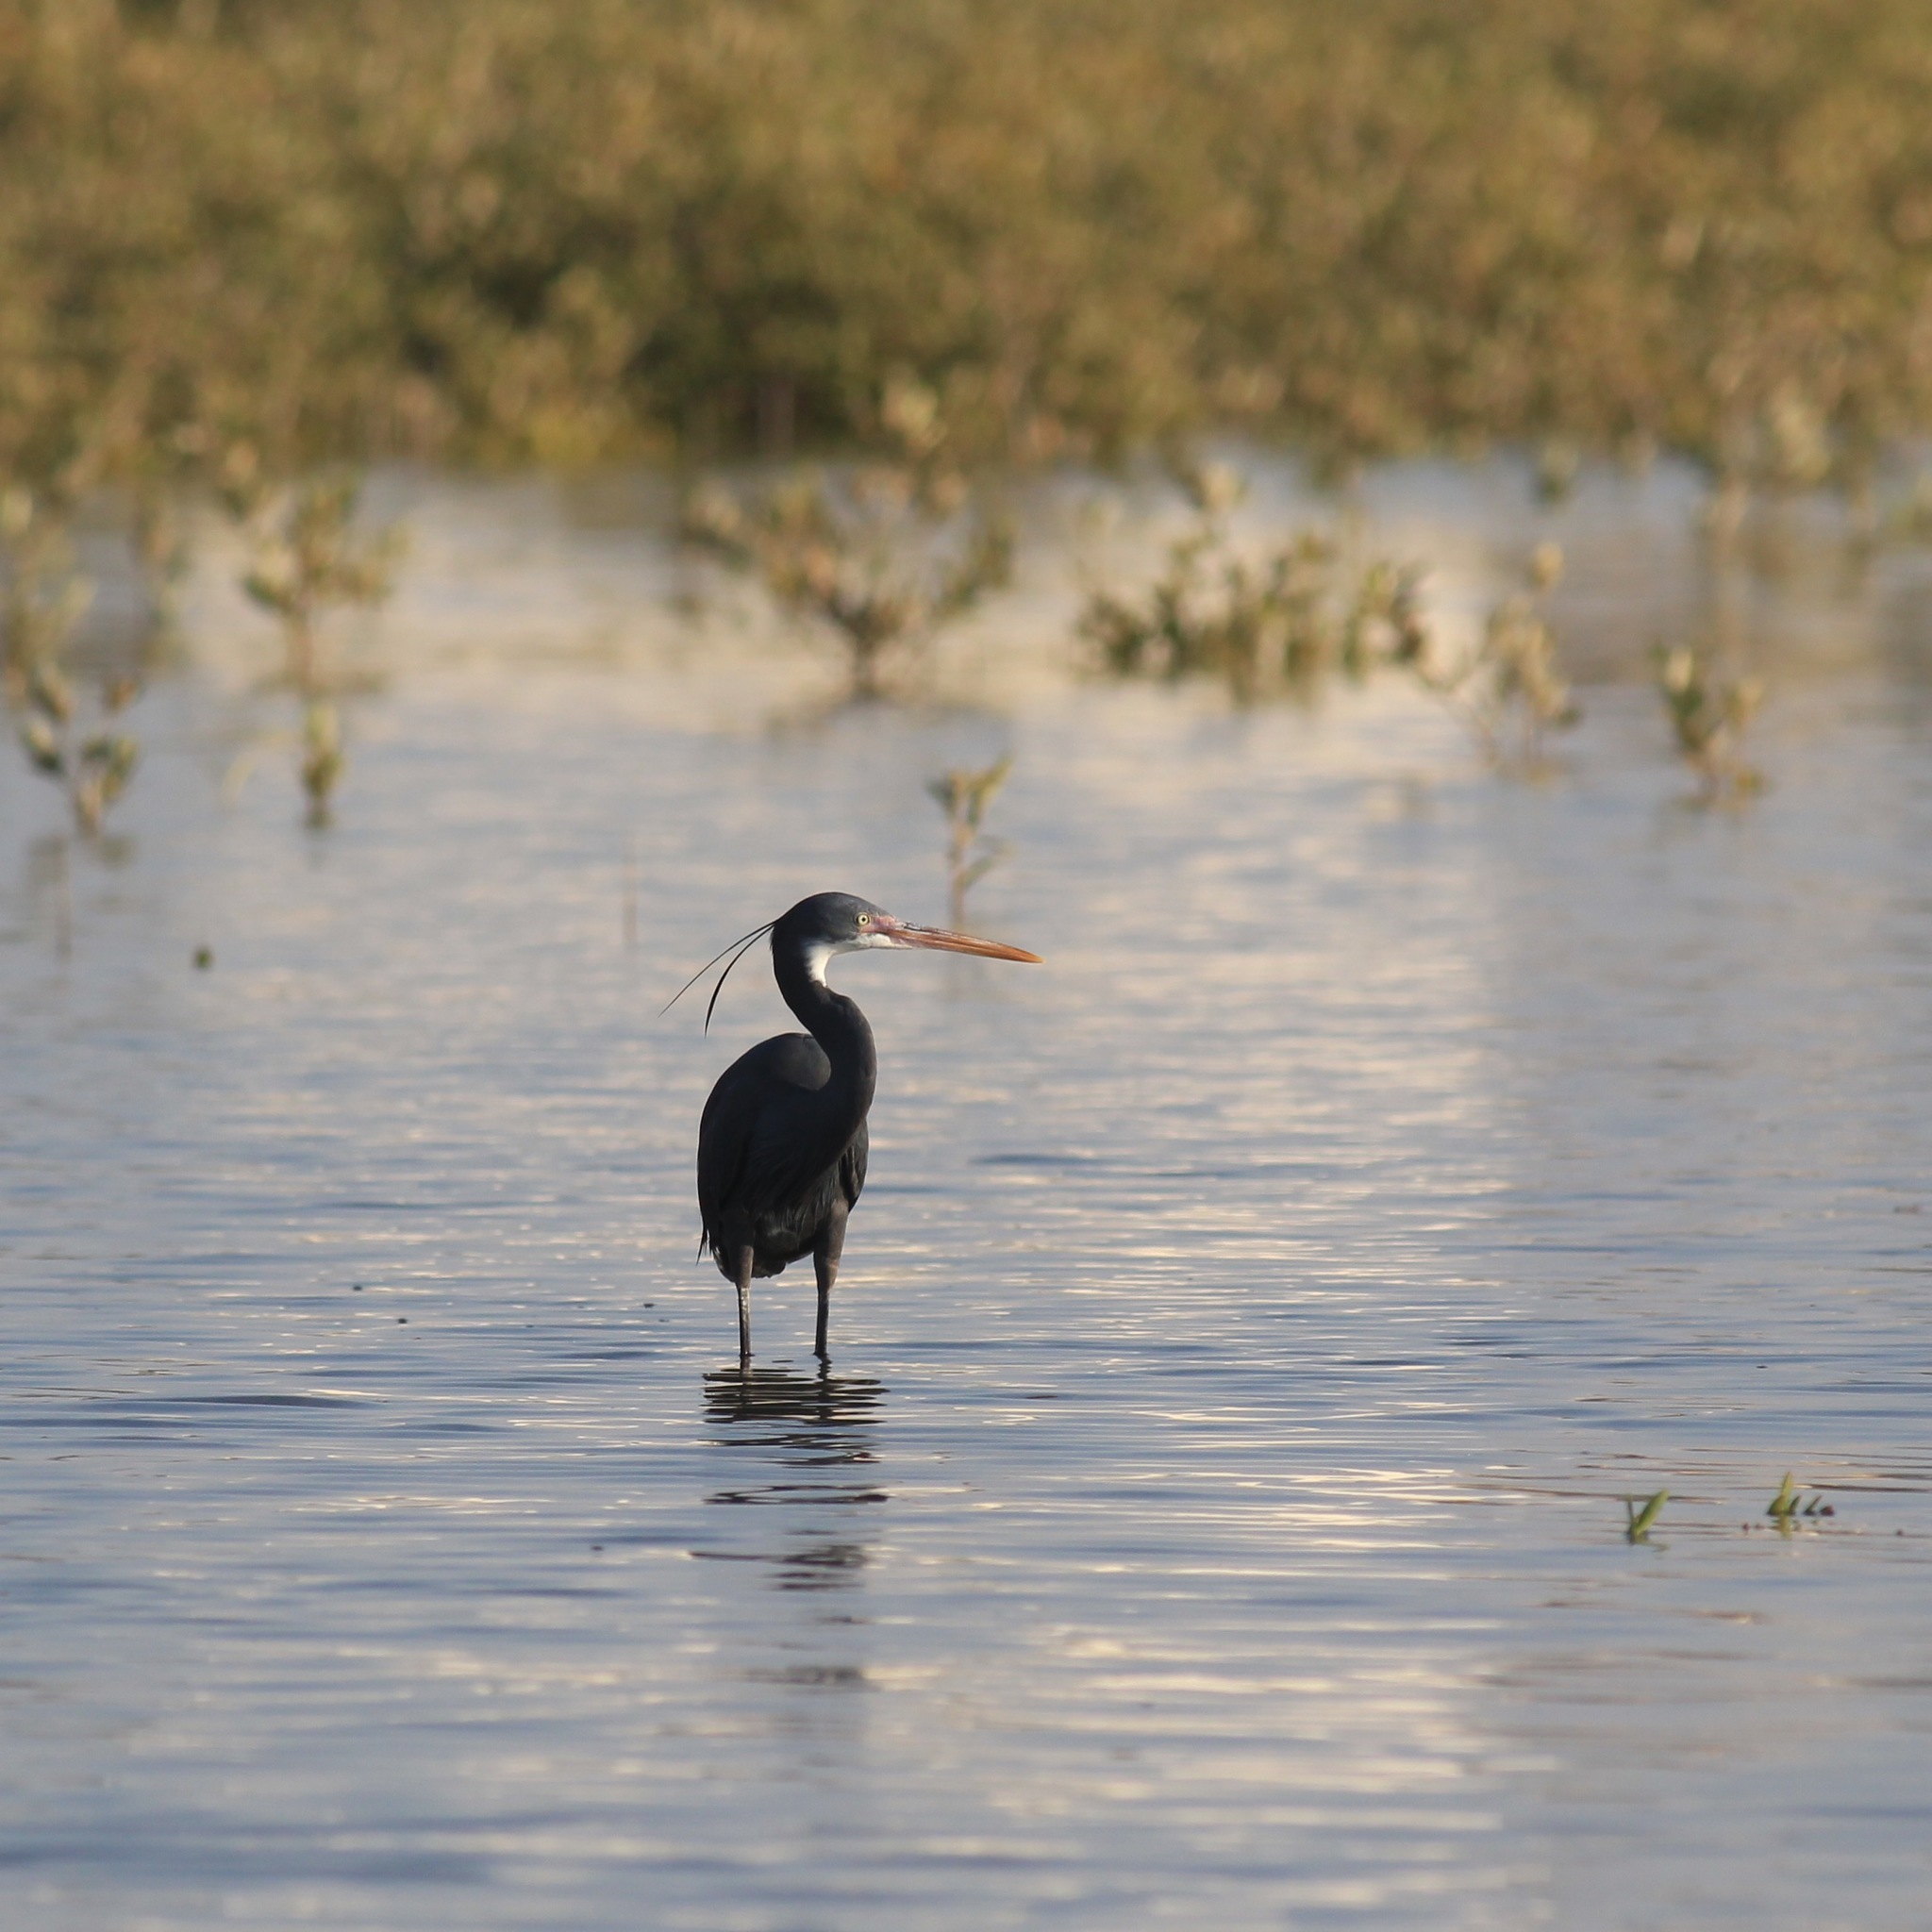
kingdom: Animalia
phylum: Chordata
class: Aves
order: Pelecaniformes
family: Ardeidae
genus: Egretta
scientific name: Egretta gularis
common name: Western reef-heron
